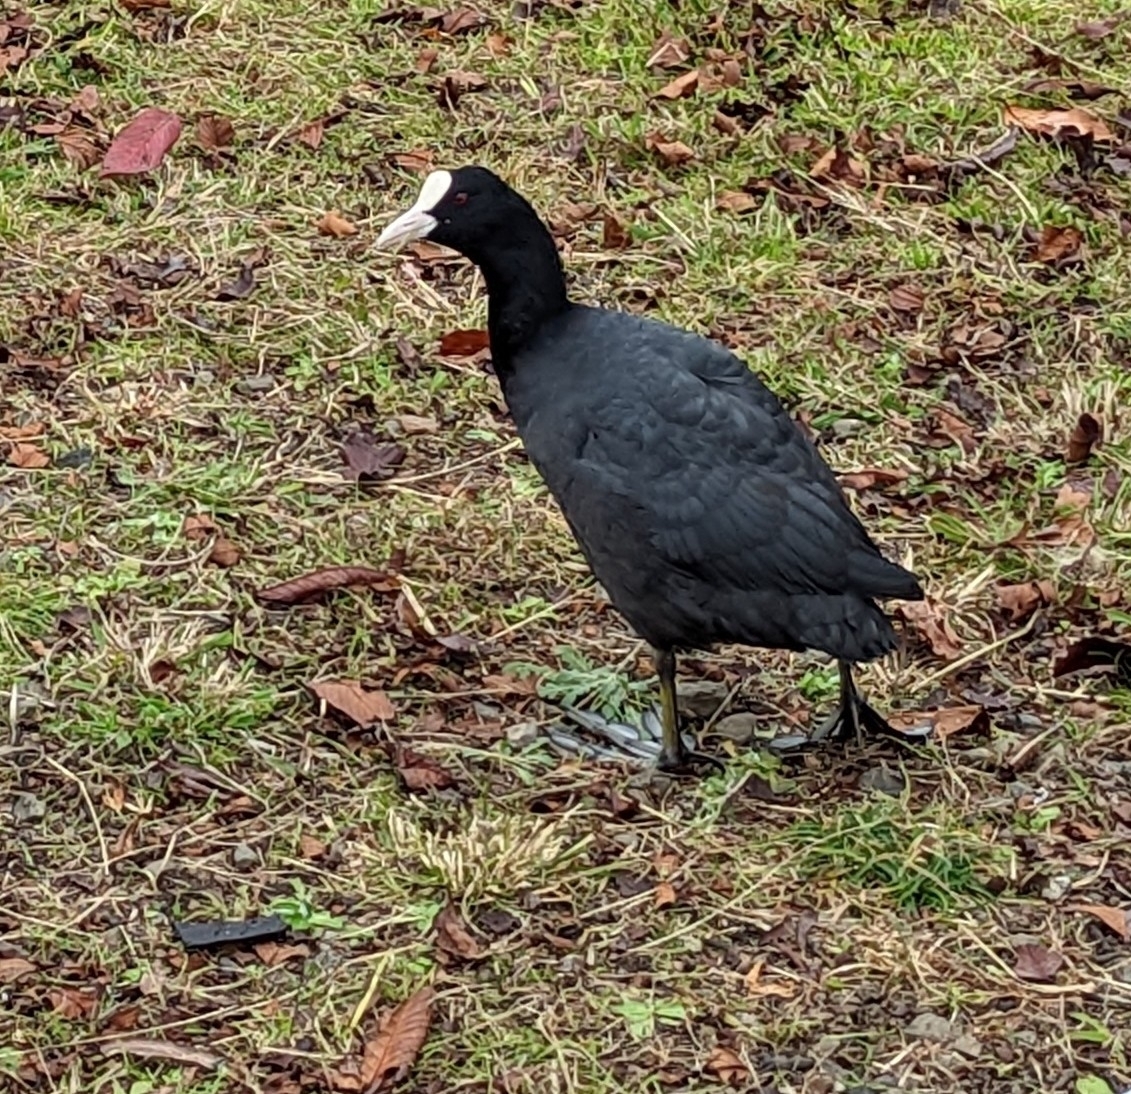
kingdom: Animalia
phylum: Chordata
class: Aves
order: Gruiformes
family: Rallidae
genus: Fulica
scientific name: Fulica atra
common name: Eurasian coot
